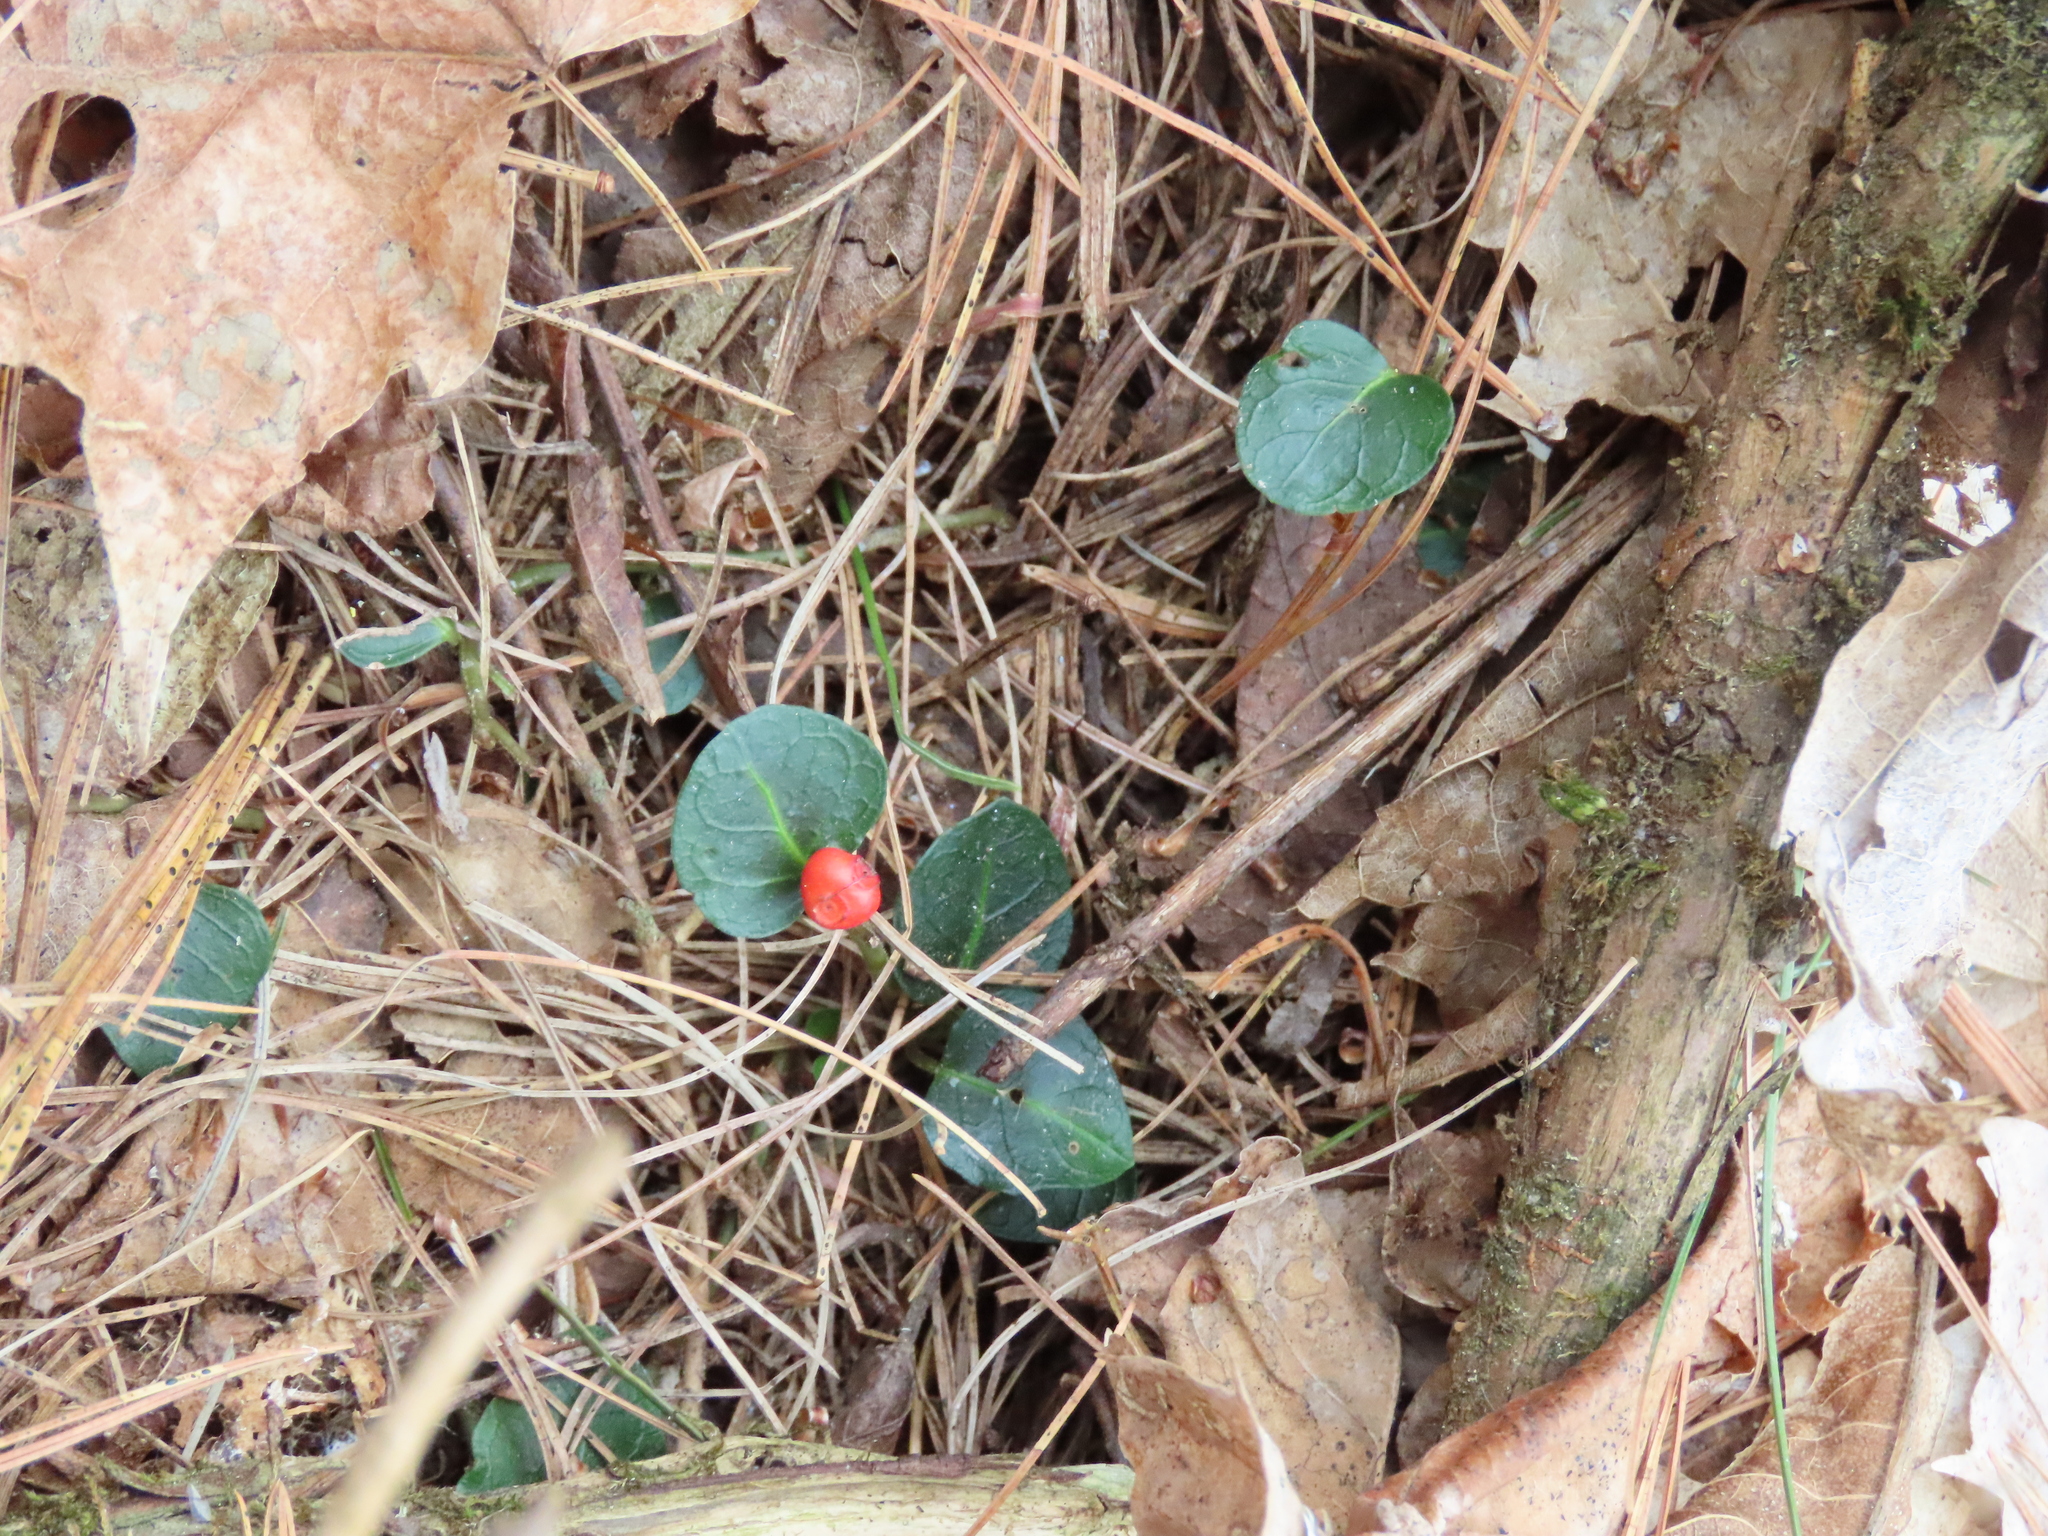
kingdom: Plantae
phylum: Tracheophyta
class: Magnoliopsida
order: Gentianales
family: Rubiaceae
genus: Mitchella
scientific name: Mitchella repens
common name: Partridge-berry
